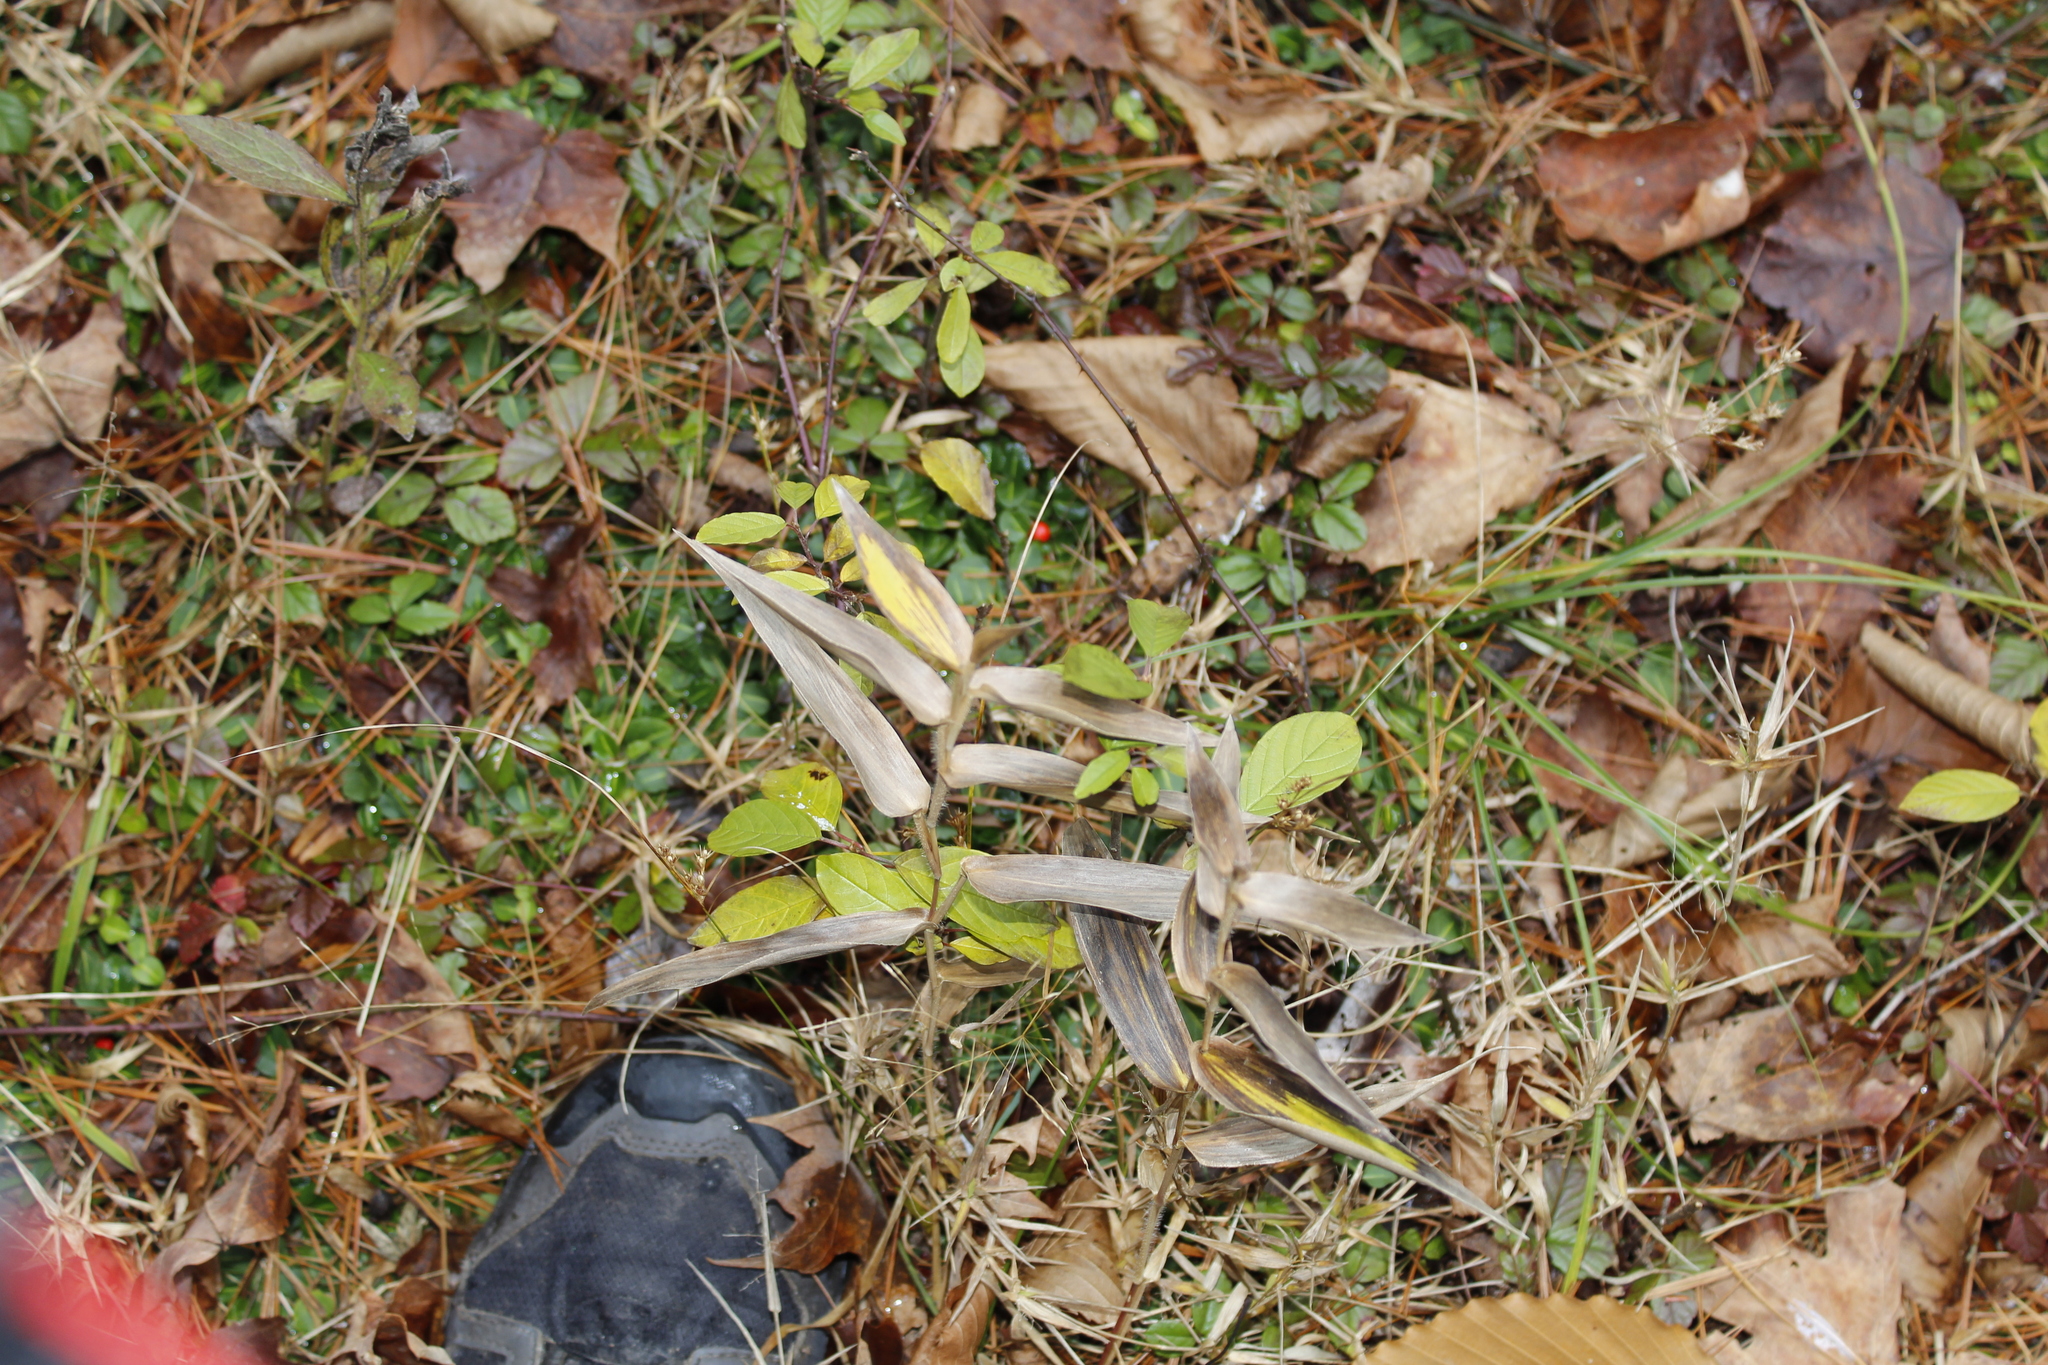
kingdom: Plantae
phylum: Tracheophyta
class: Liliopsida
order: Poales
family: Poaceae
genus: Dichanthelium
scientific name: Dichanthelium
